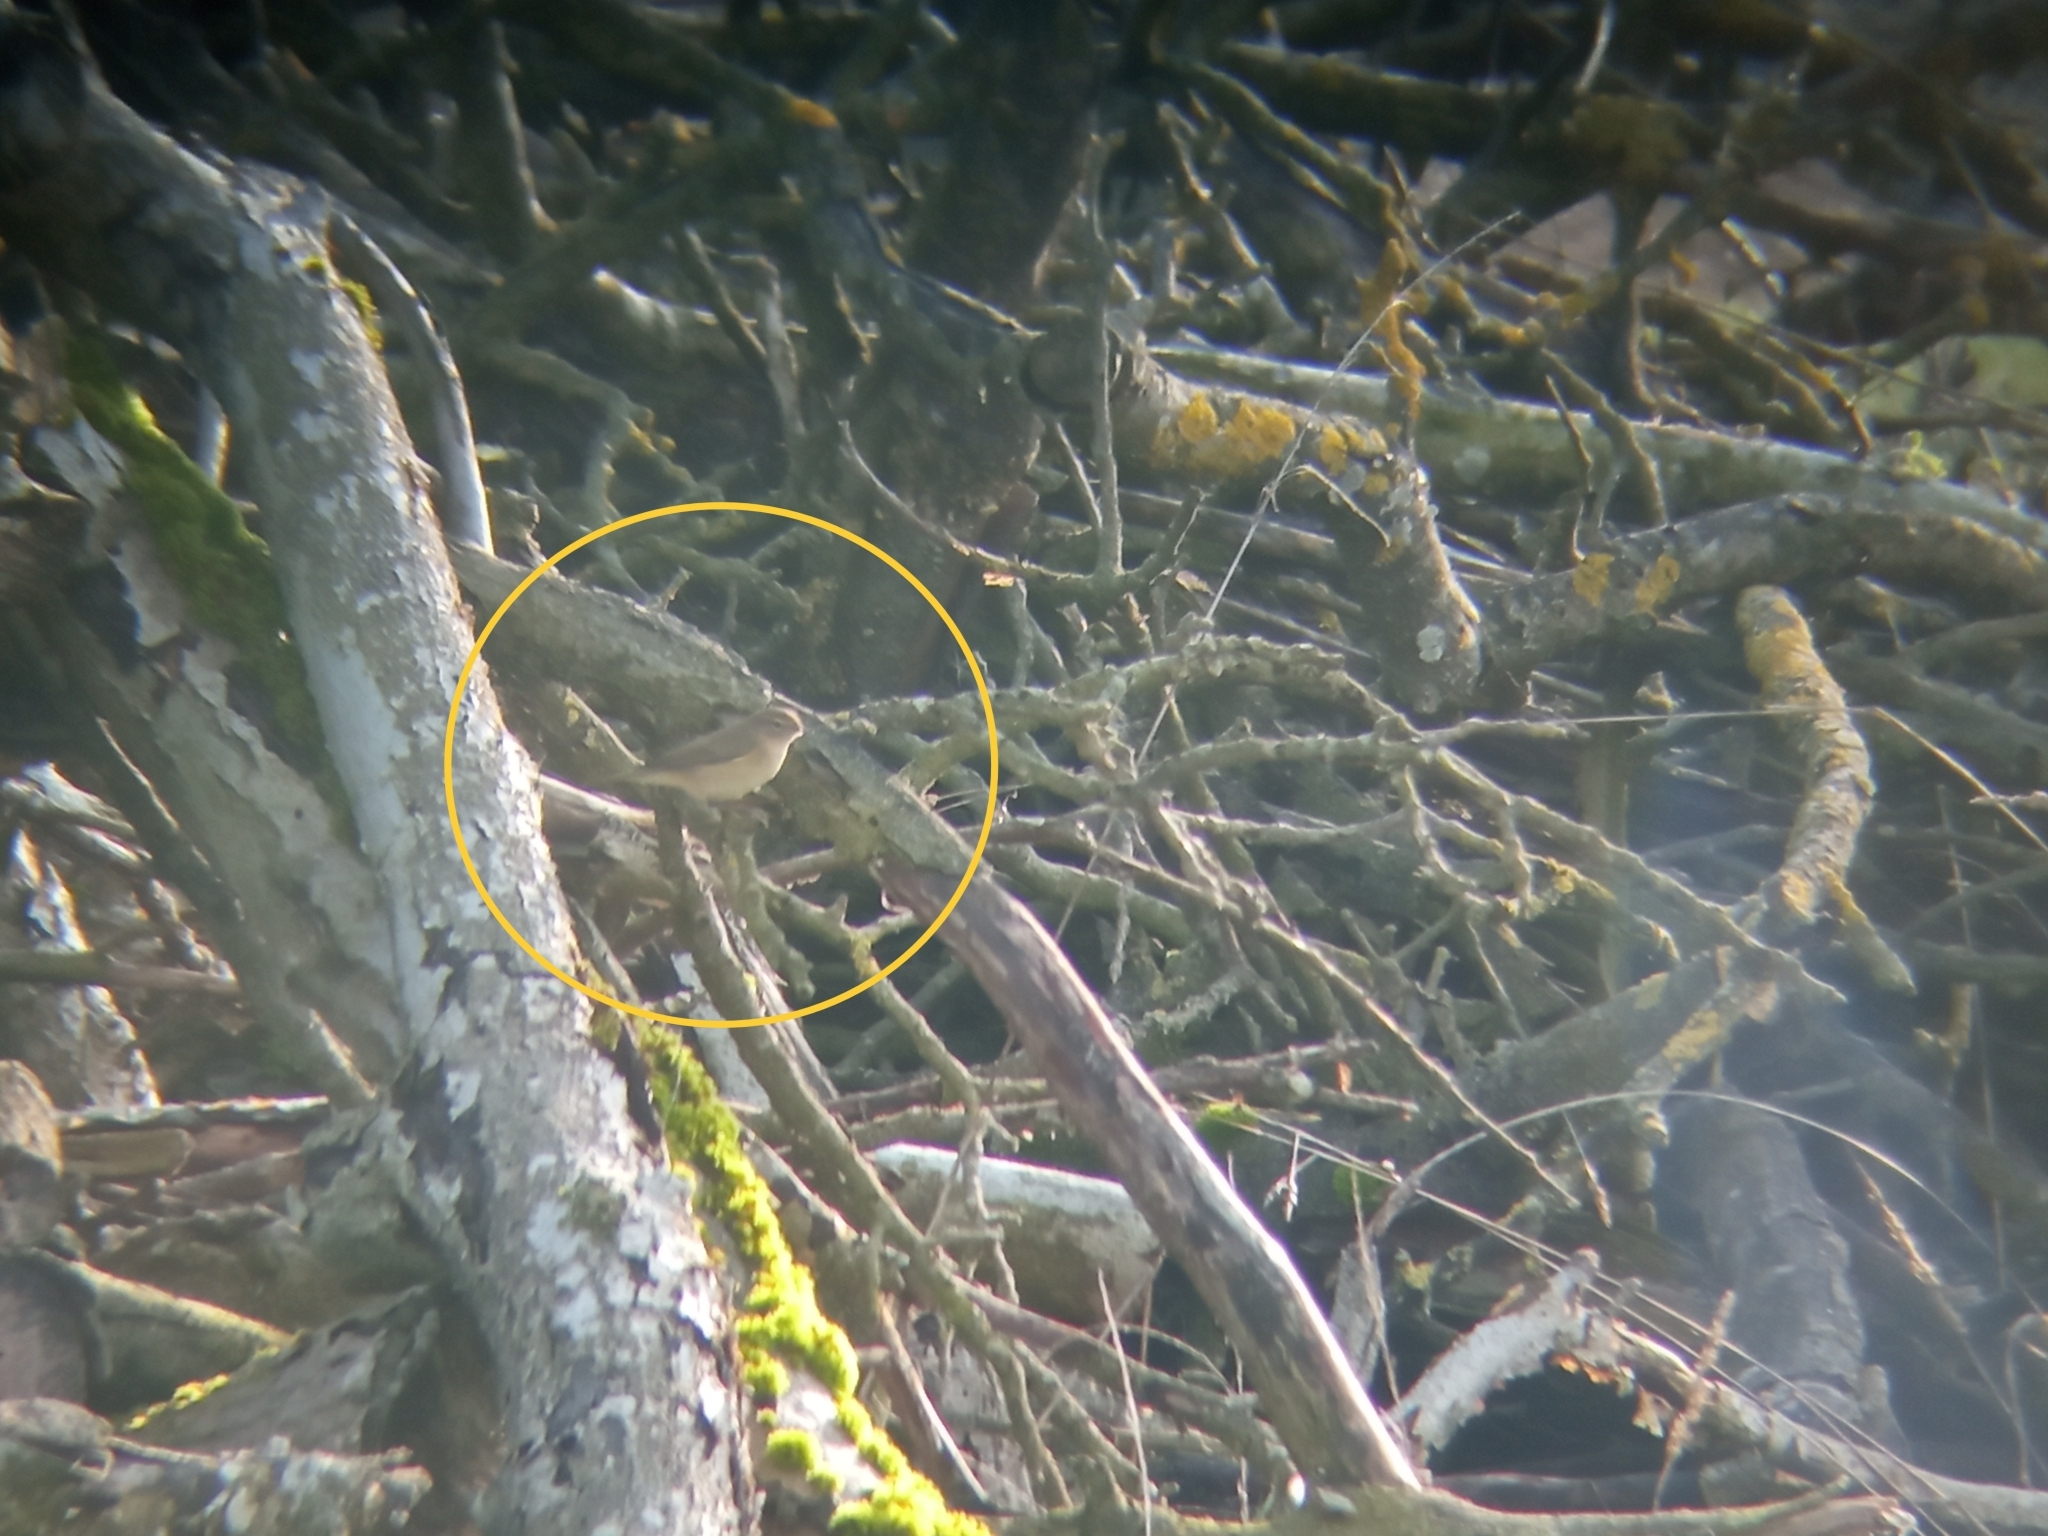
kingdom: Animalia
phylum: Chordata
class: Aves
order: Passeriformes
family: Phylloscopidae
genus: Phylloscopus
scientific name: Phylloscopus collybita
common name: Common chiffchaff
